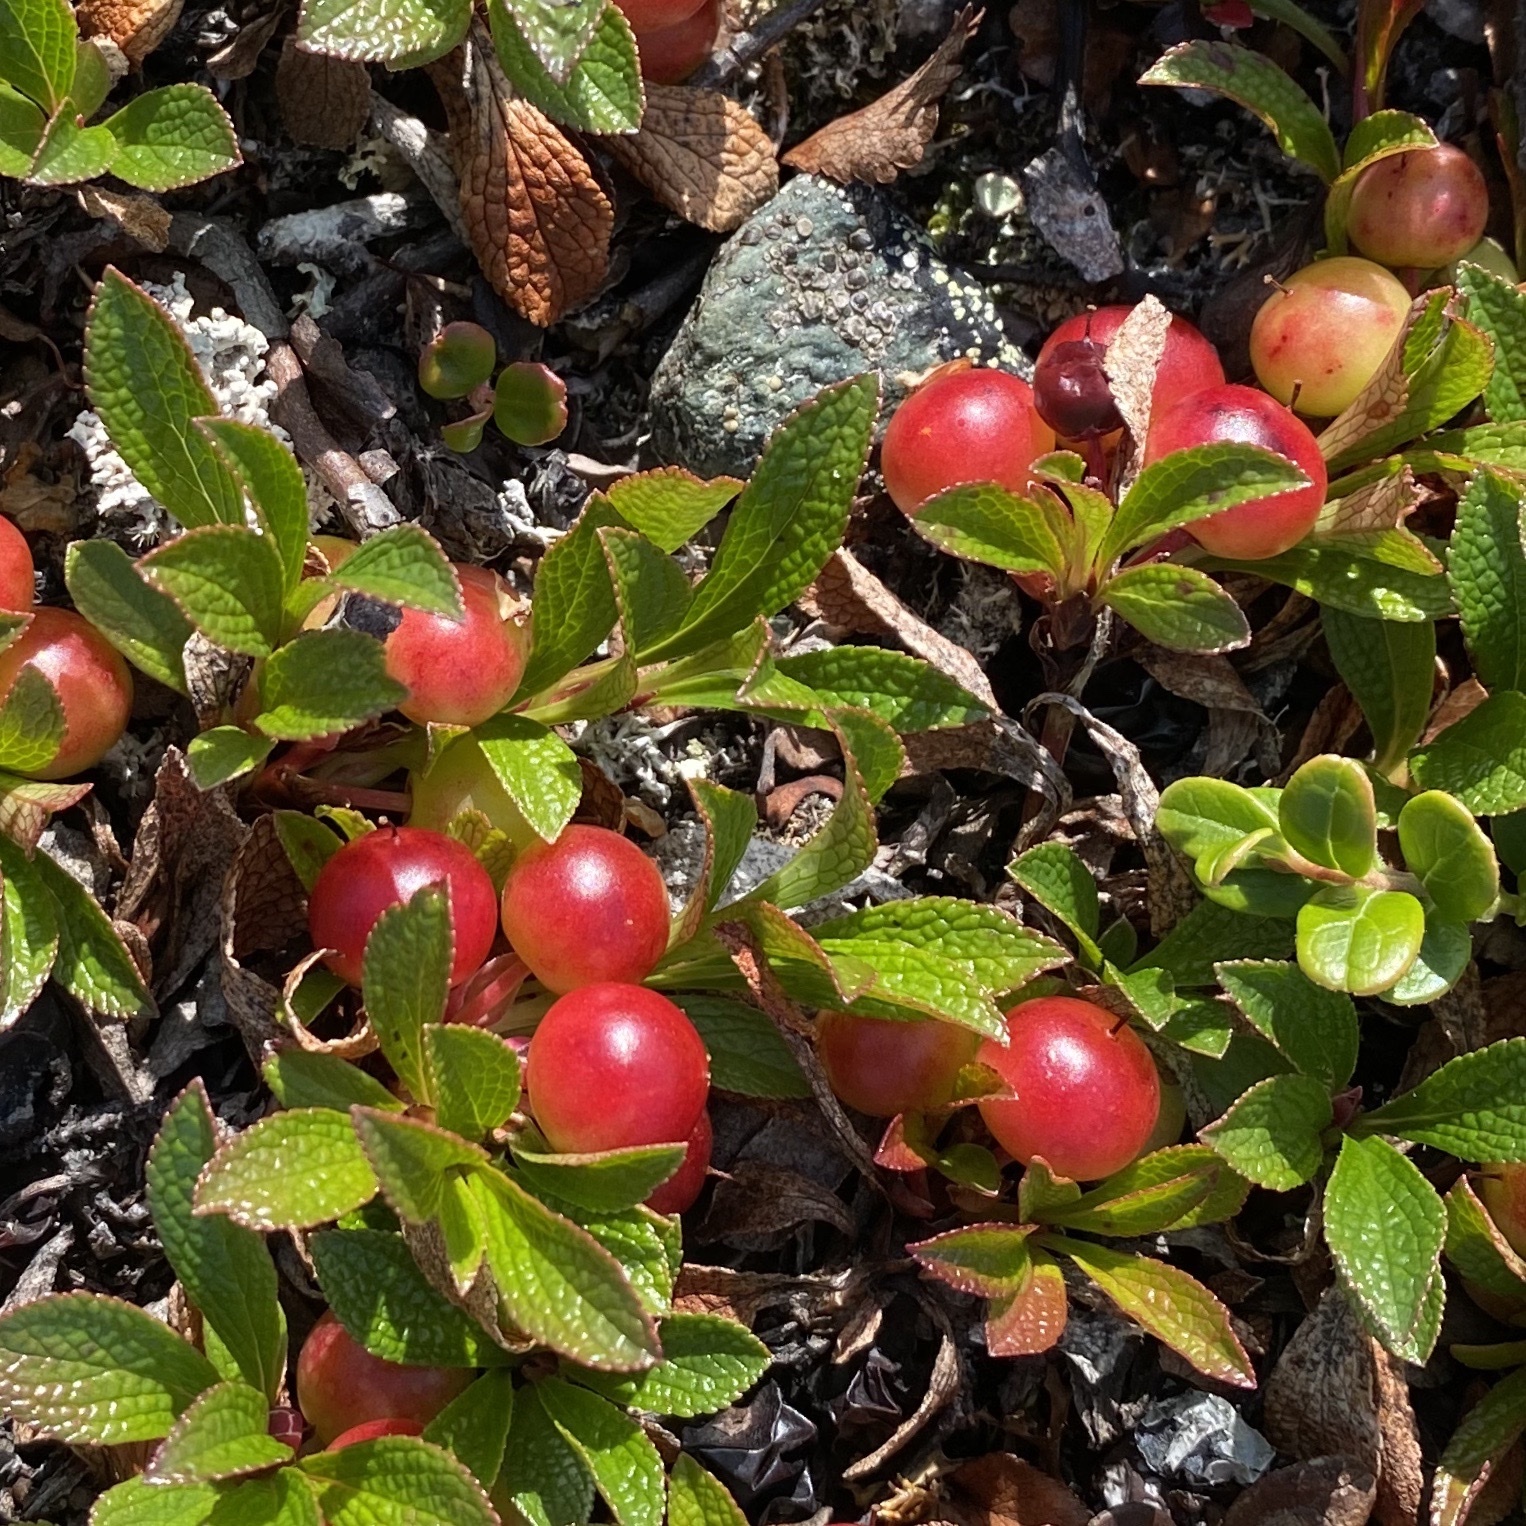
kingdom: Plantae
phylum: Tracheophyta
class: Magnoliopsida
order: Ericales
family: Ericaceae
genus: Arctostaphylos
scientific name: Arctostaphylos alpinus
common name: Alpine bearberry
